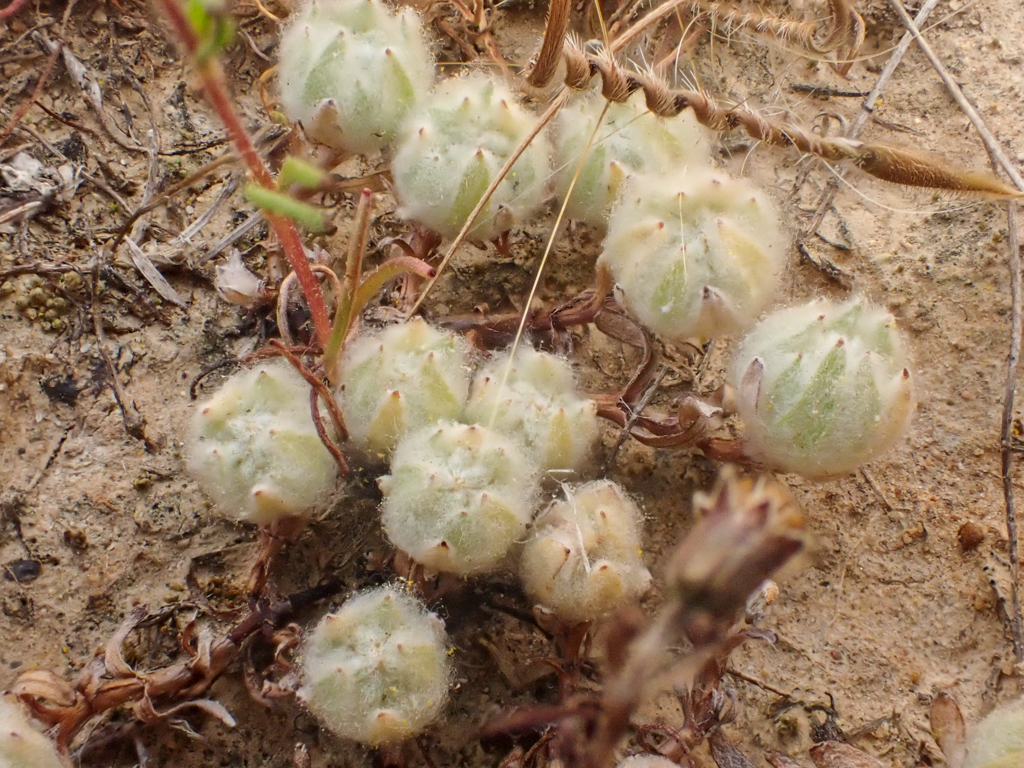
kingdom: Plantae
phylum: Tracheophyta
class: Magnoliopsida
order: Asterales
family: Asteraceae
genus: Psilocarphus
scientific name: Psilocarphus brevissimus
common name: Dwarf woollyheads
